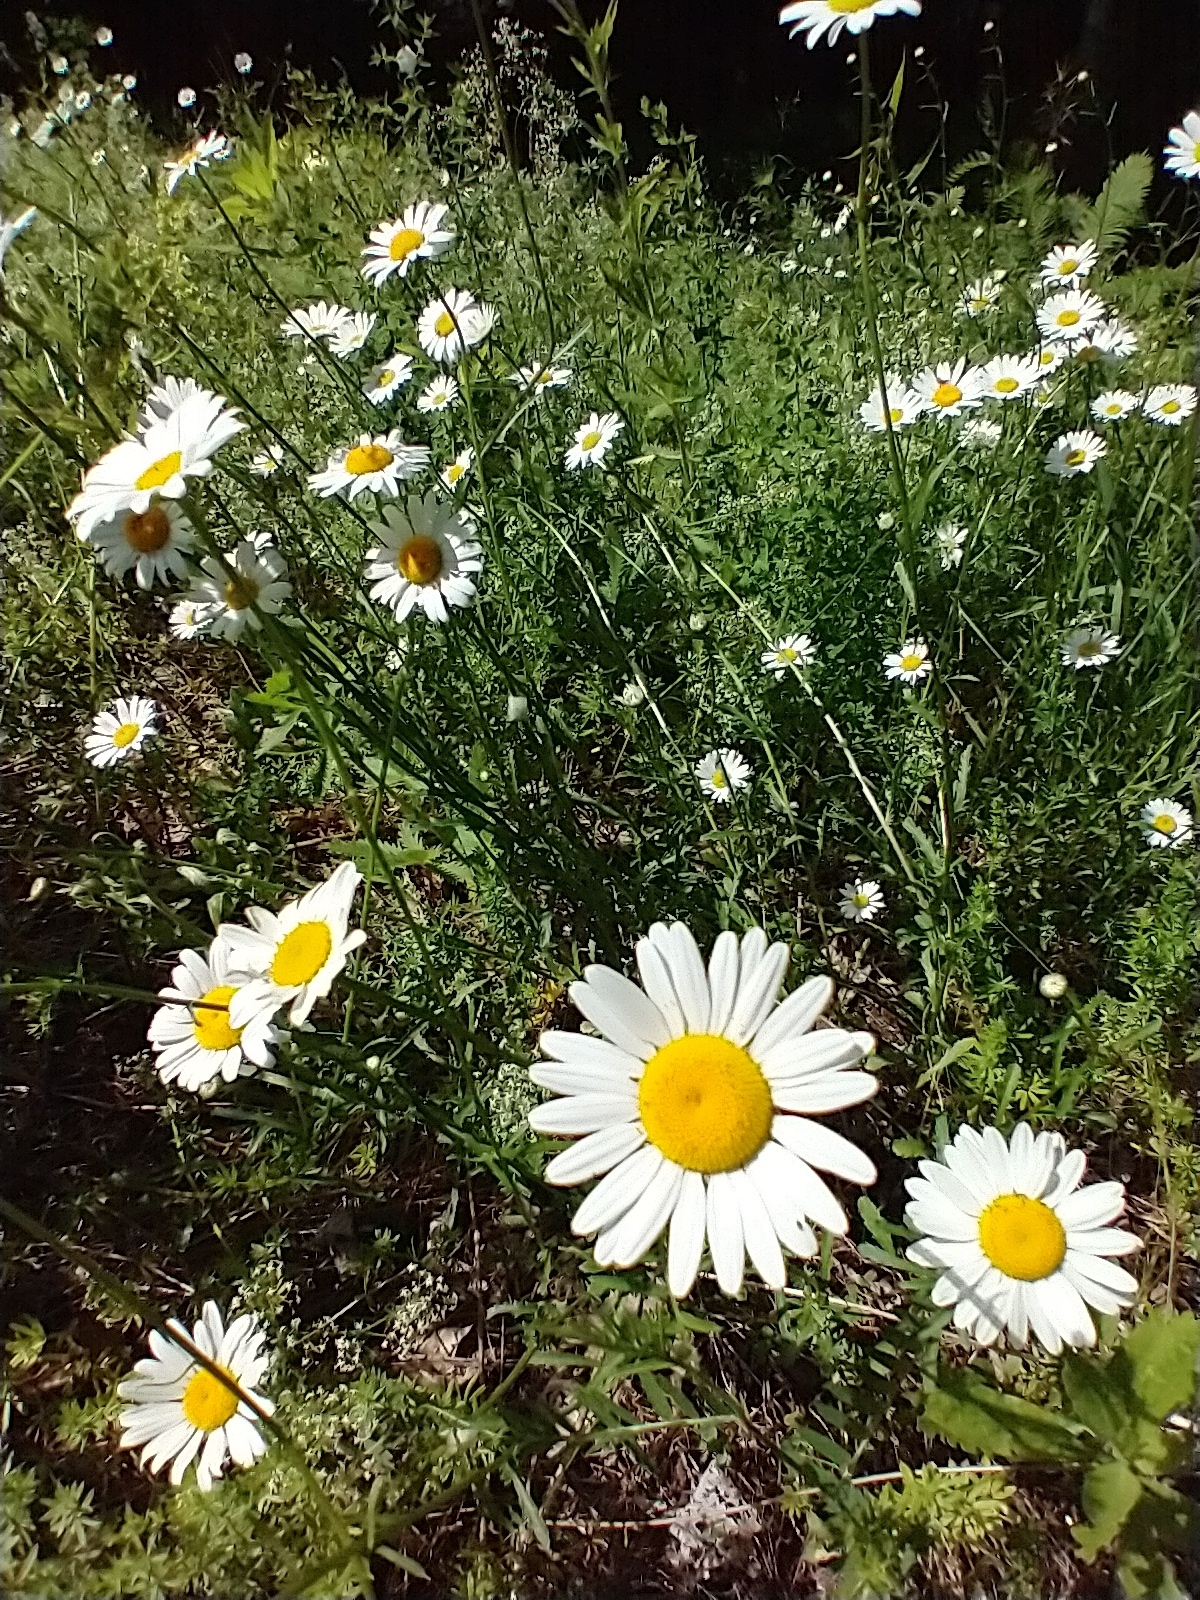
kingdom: Plantae
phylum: Tracheophyta
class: Magnoliopsida
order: Asterales
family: Asteraceae
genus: Leucanthemum
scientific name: Leucanthemum vulgare
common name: Oxeye daisy
